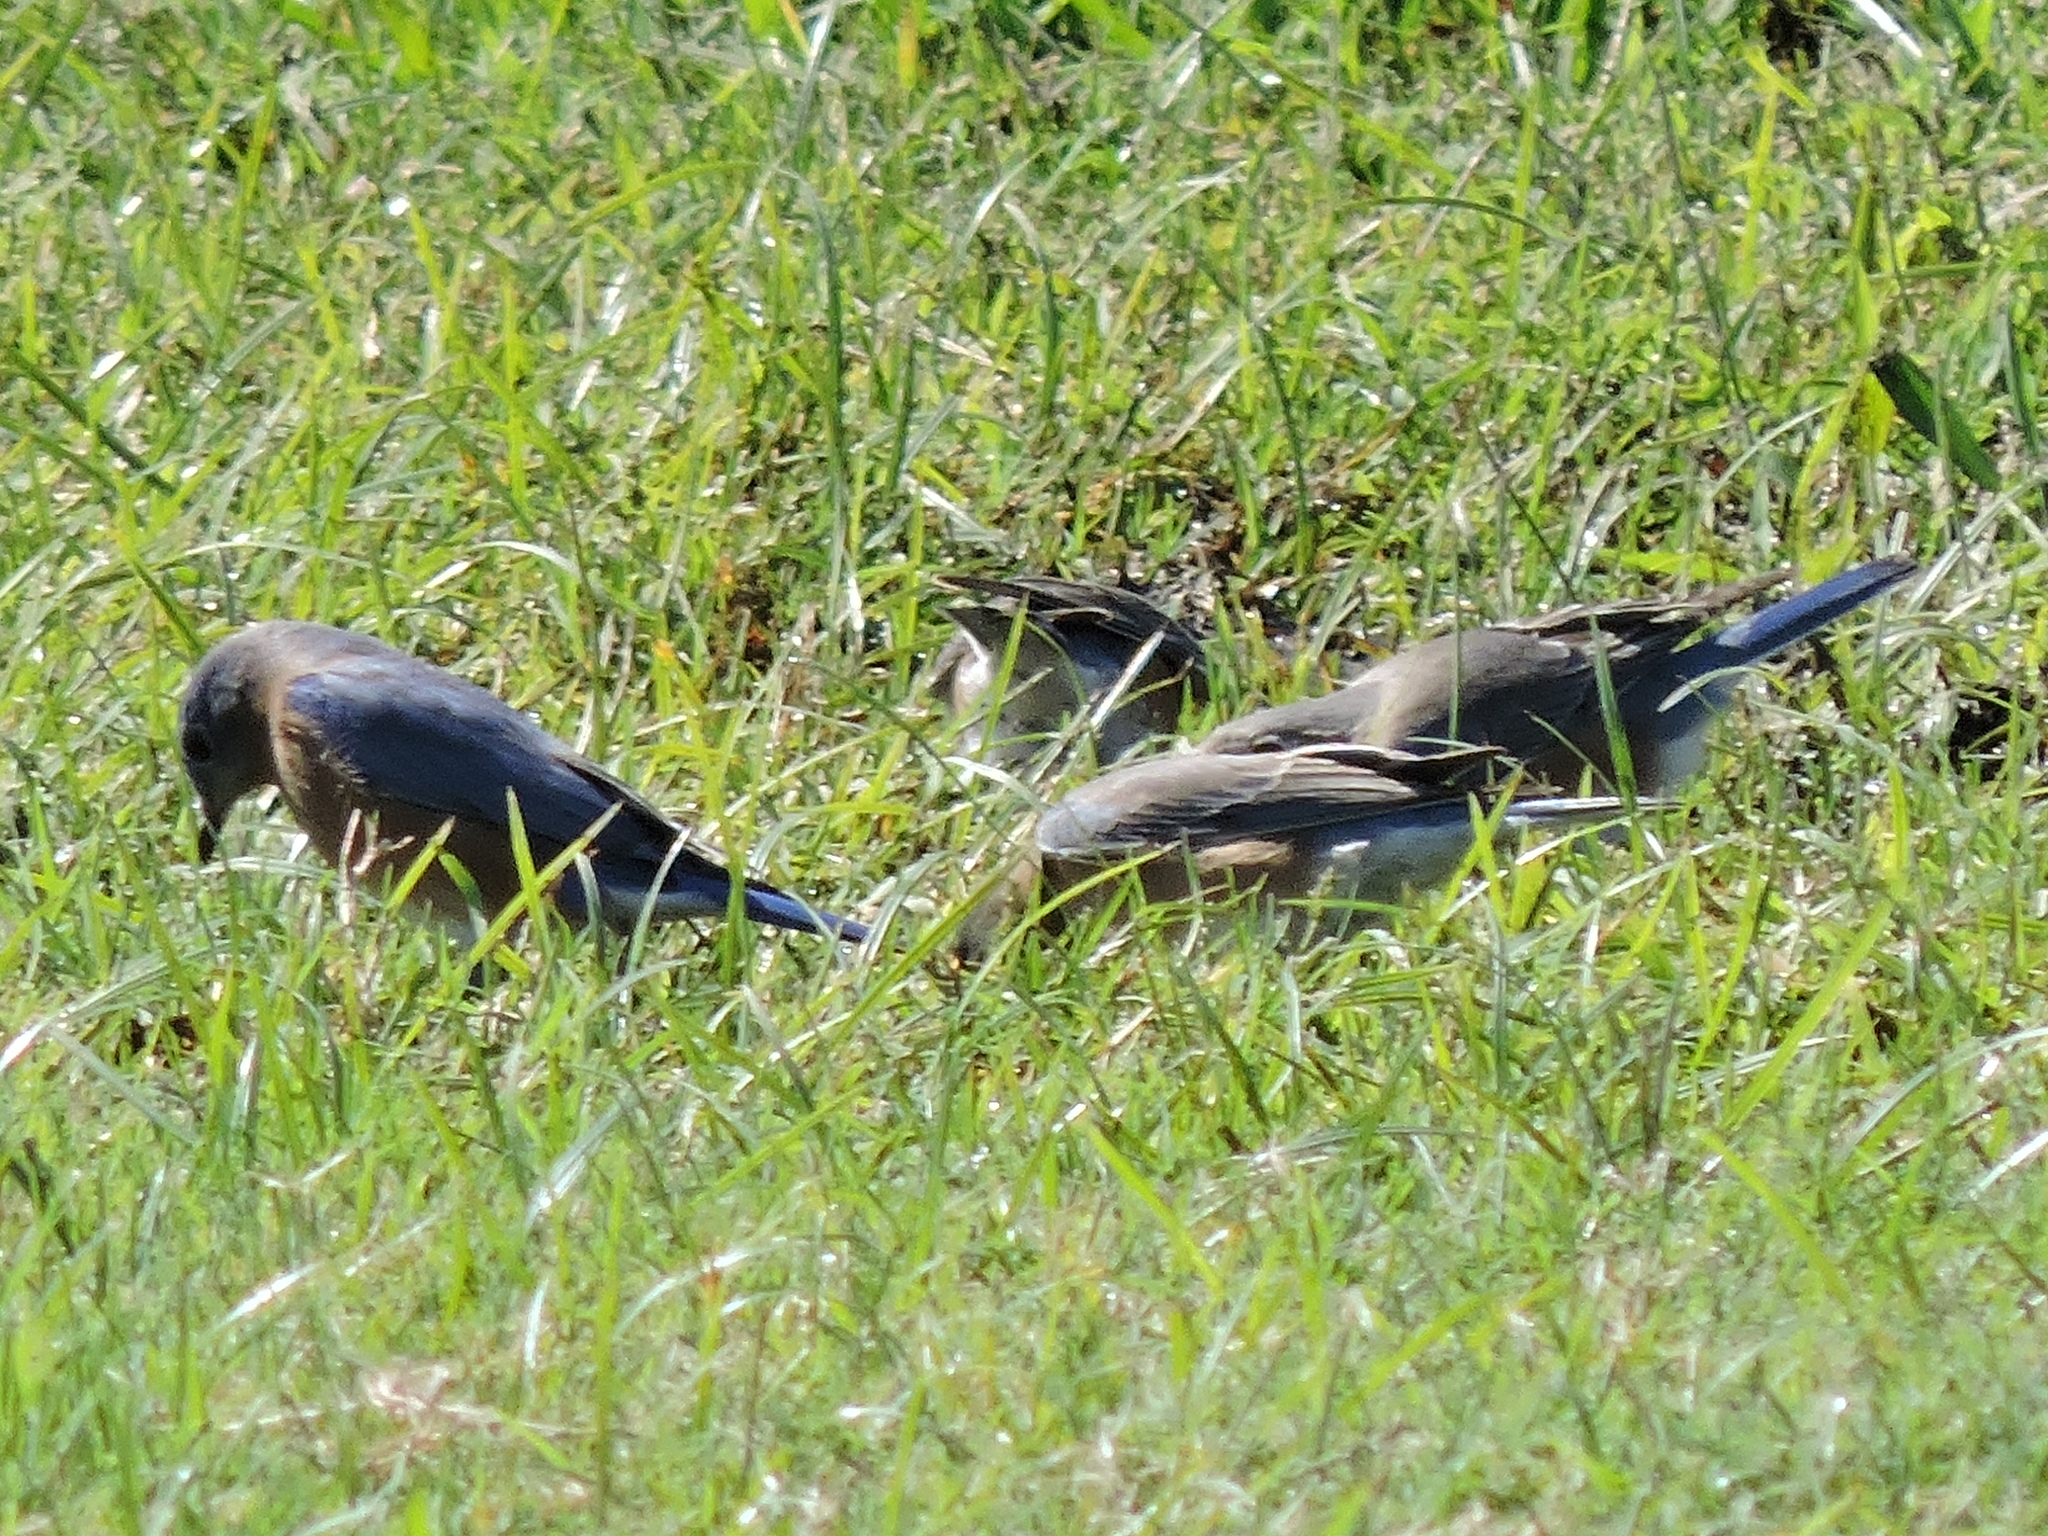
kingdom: Animalia
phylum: Chordata
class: Aves
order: Passeriformes
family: Turdidae
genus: Sialia
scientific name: Sialia sialis
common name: Eastern bluebird
